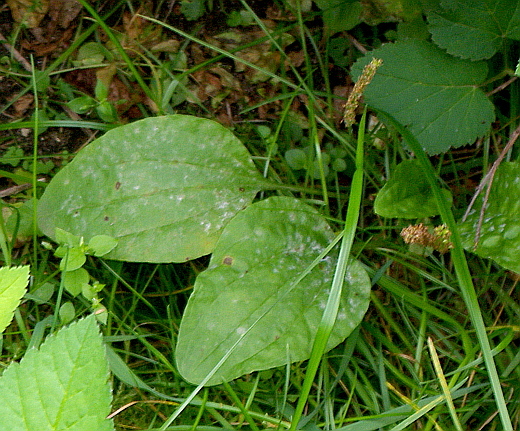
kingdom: Plantae
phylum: Tracheophyta
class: Magnoliopsida
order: Lamiales
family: Plantaginaceae
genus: Plantago
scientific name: Plantago major
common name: Common plantain
